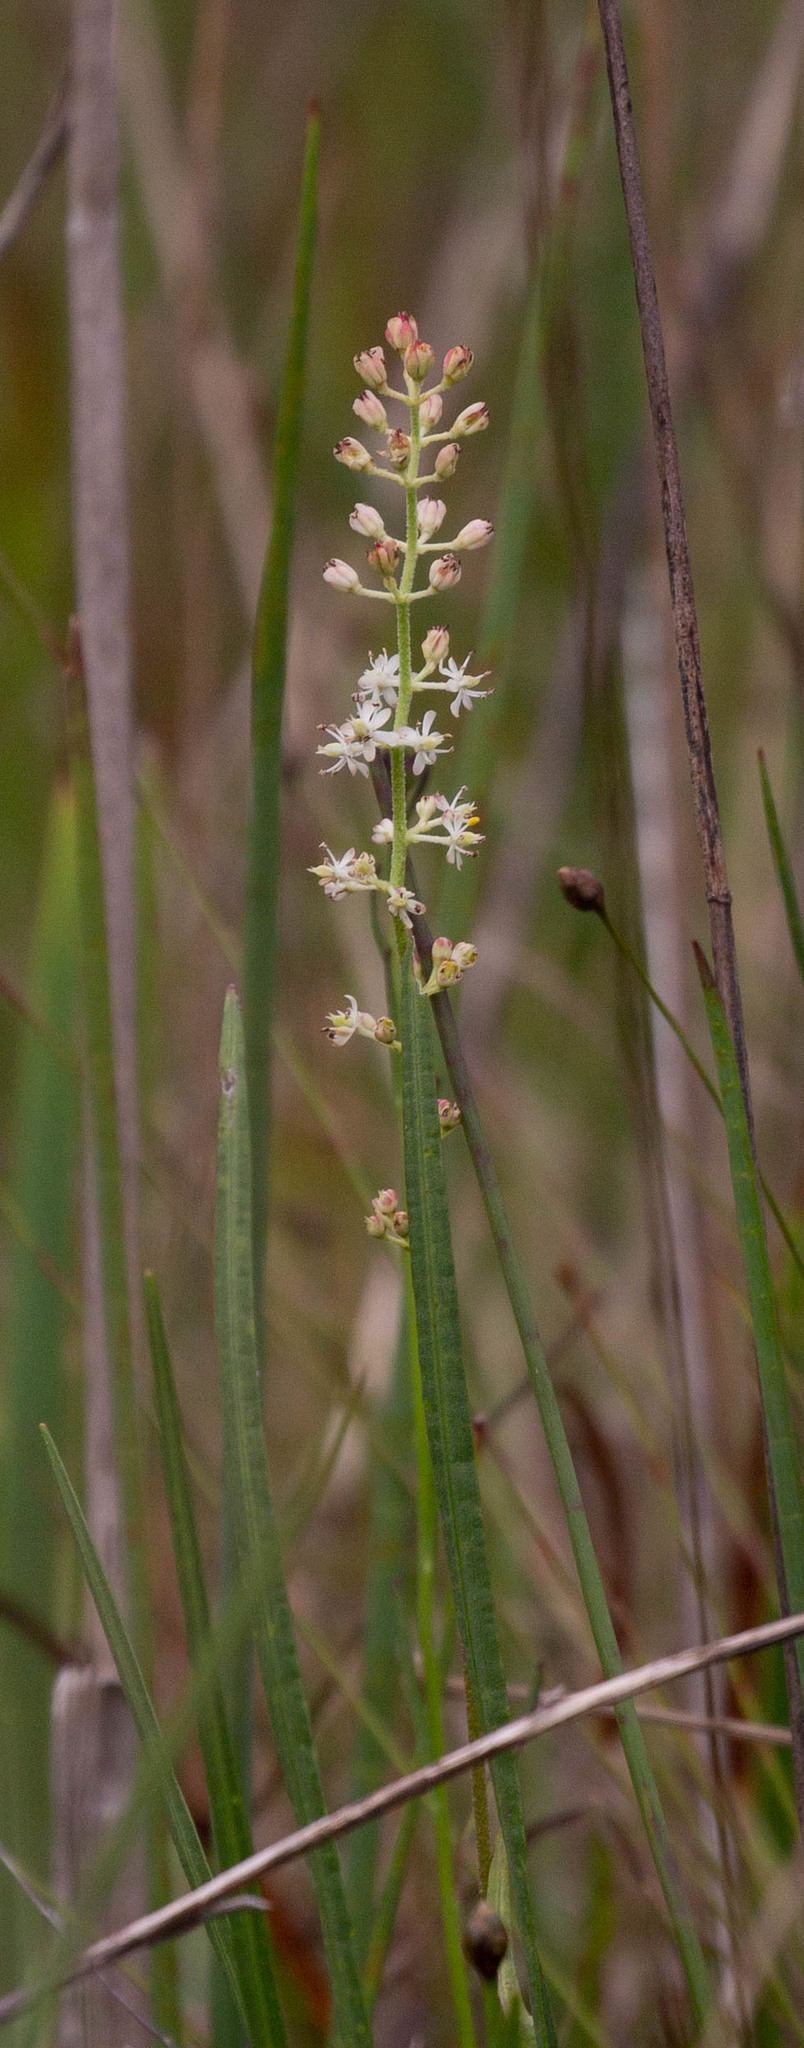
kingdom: Plantae
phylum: Tracheophyta
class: Liliopsida
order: Alismatales
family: Tofieldiaceae
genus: Triantha
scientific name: Triantha racemosa
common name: Coastal false asphodel
